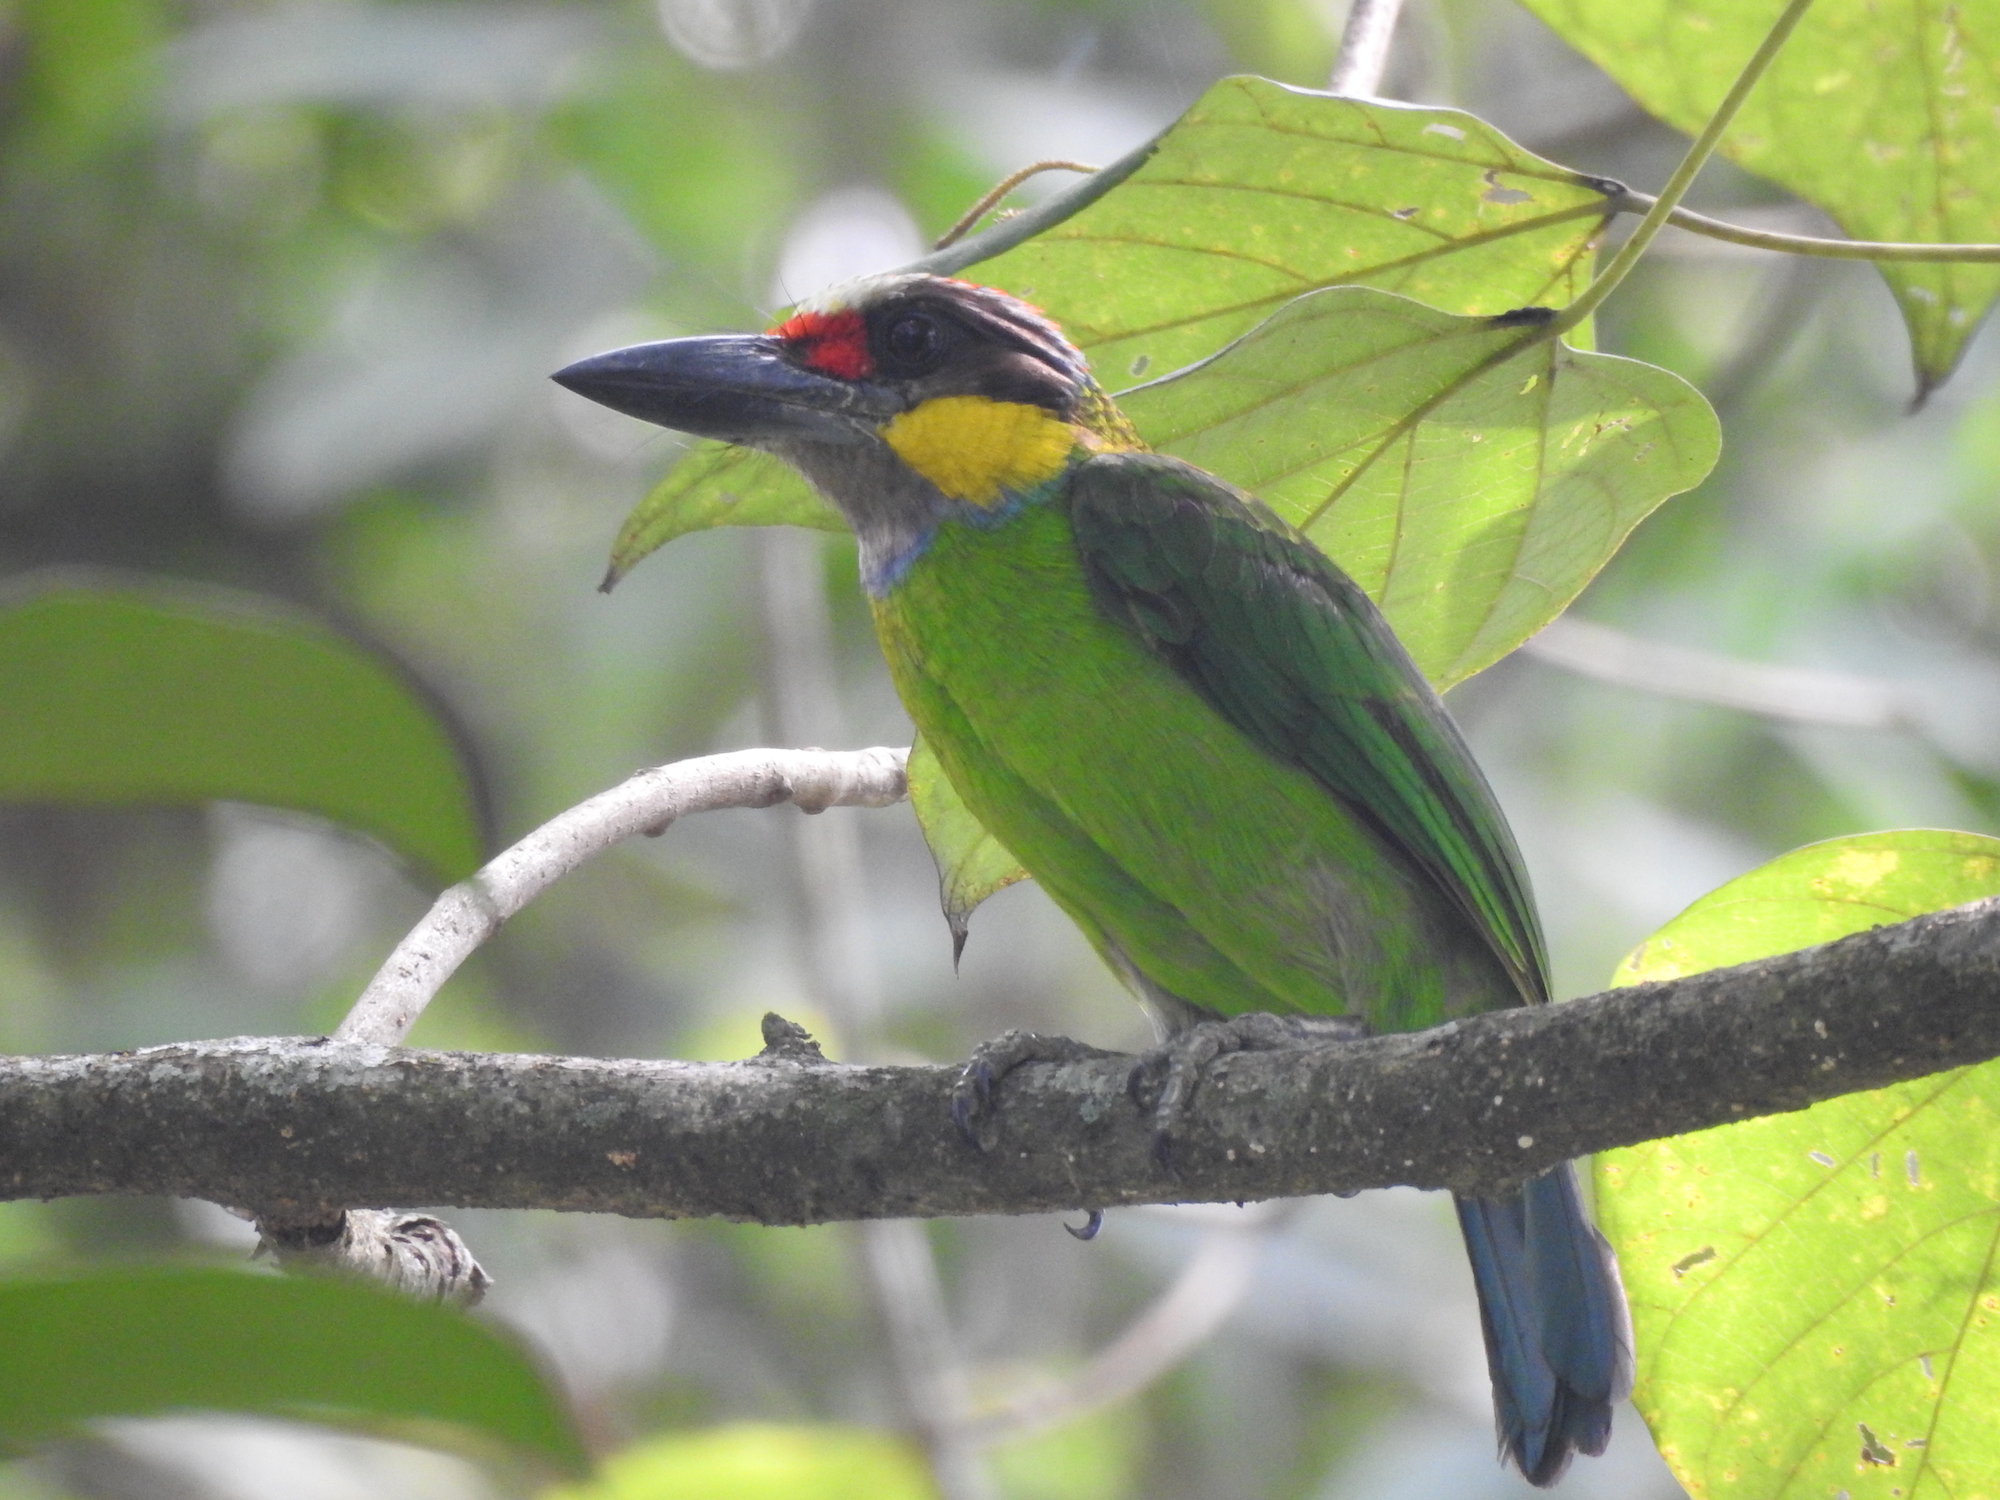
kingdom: Animalia
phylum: Chordata
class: Aves
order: Piciformes
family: Megalaimidae
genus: Psilopogon
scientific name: Psilopogon chrysopogon
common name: Golden-whiskered barbet
